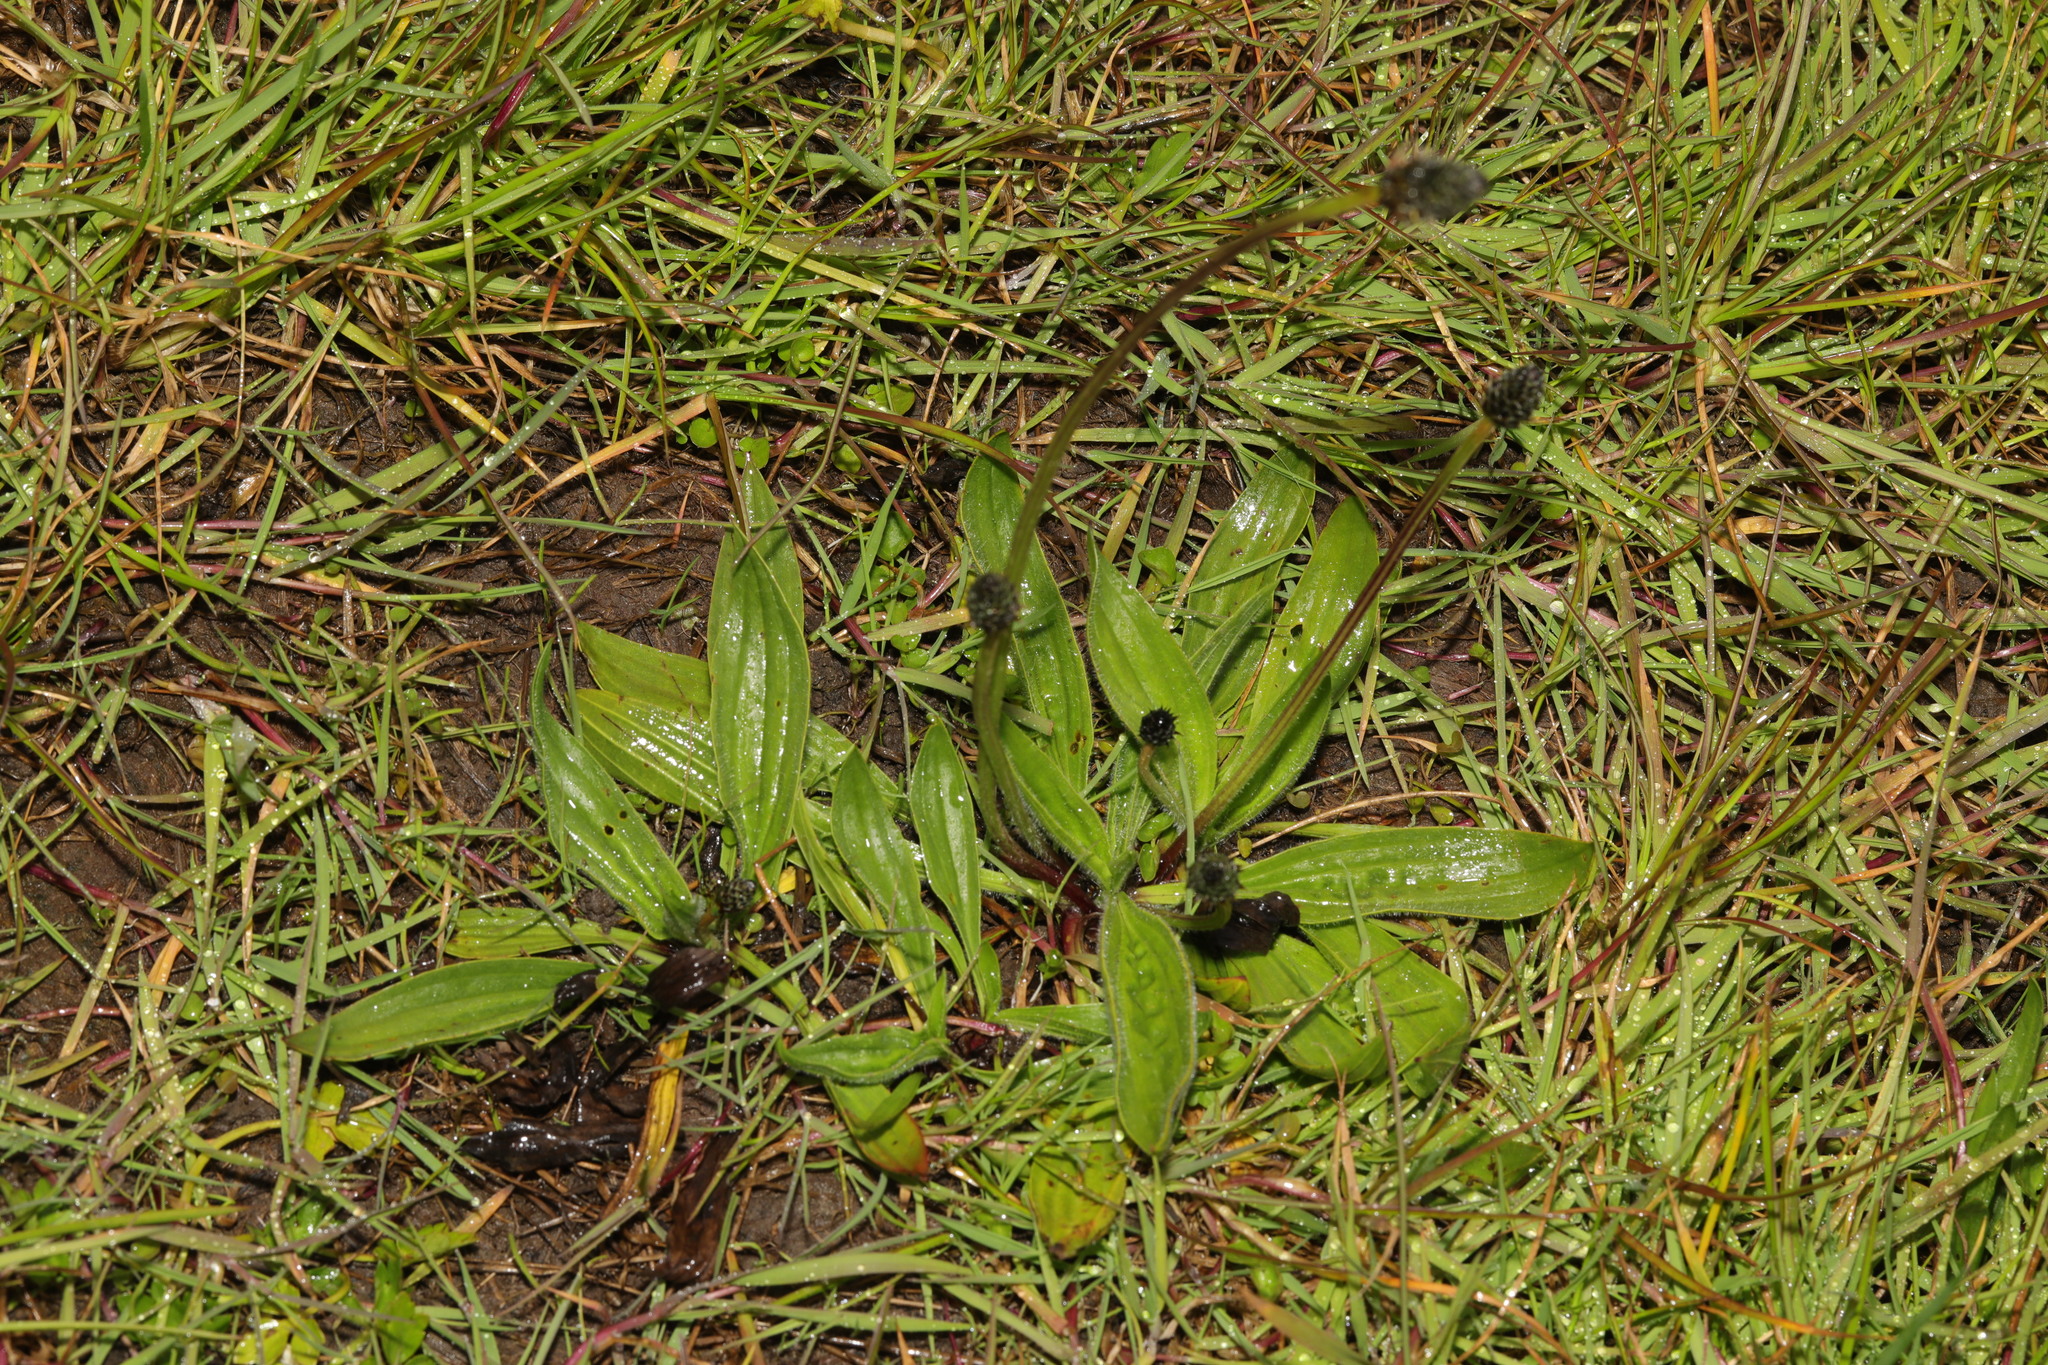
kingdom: Plantae
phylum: Tracheophyta
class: Magnoliopsida
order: Lamiales
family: Plantaginaceae
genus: Plantago
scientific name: Plantago lanceolata
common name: Ribwort plantain
